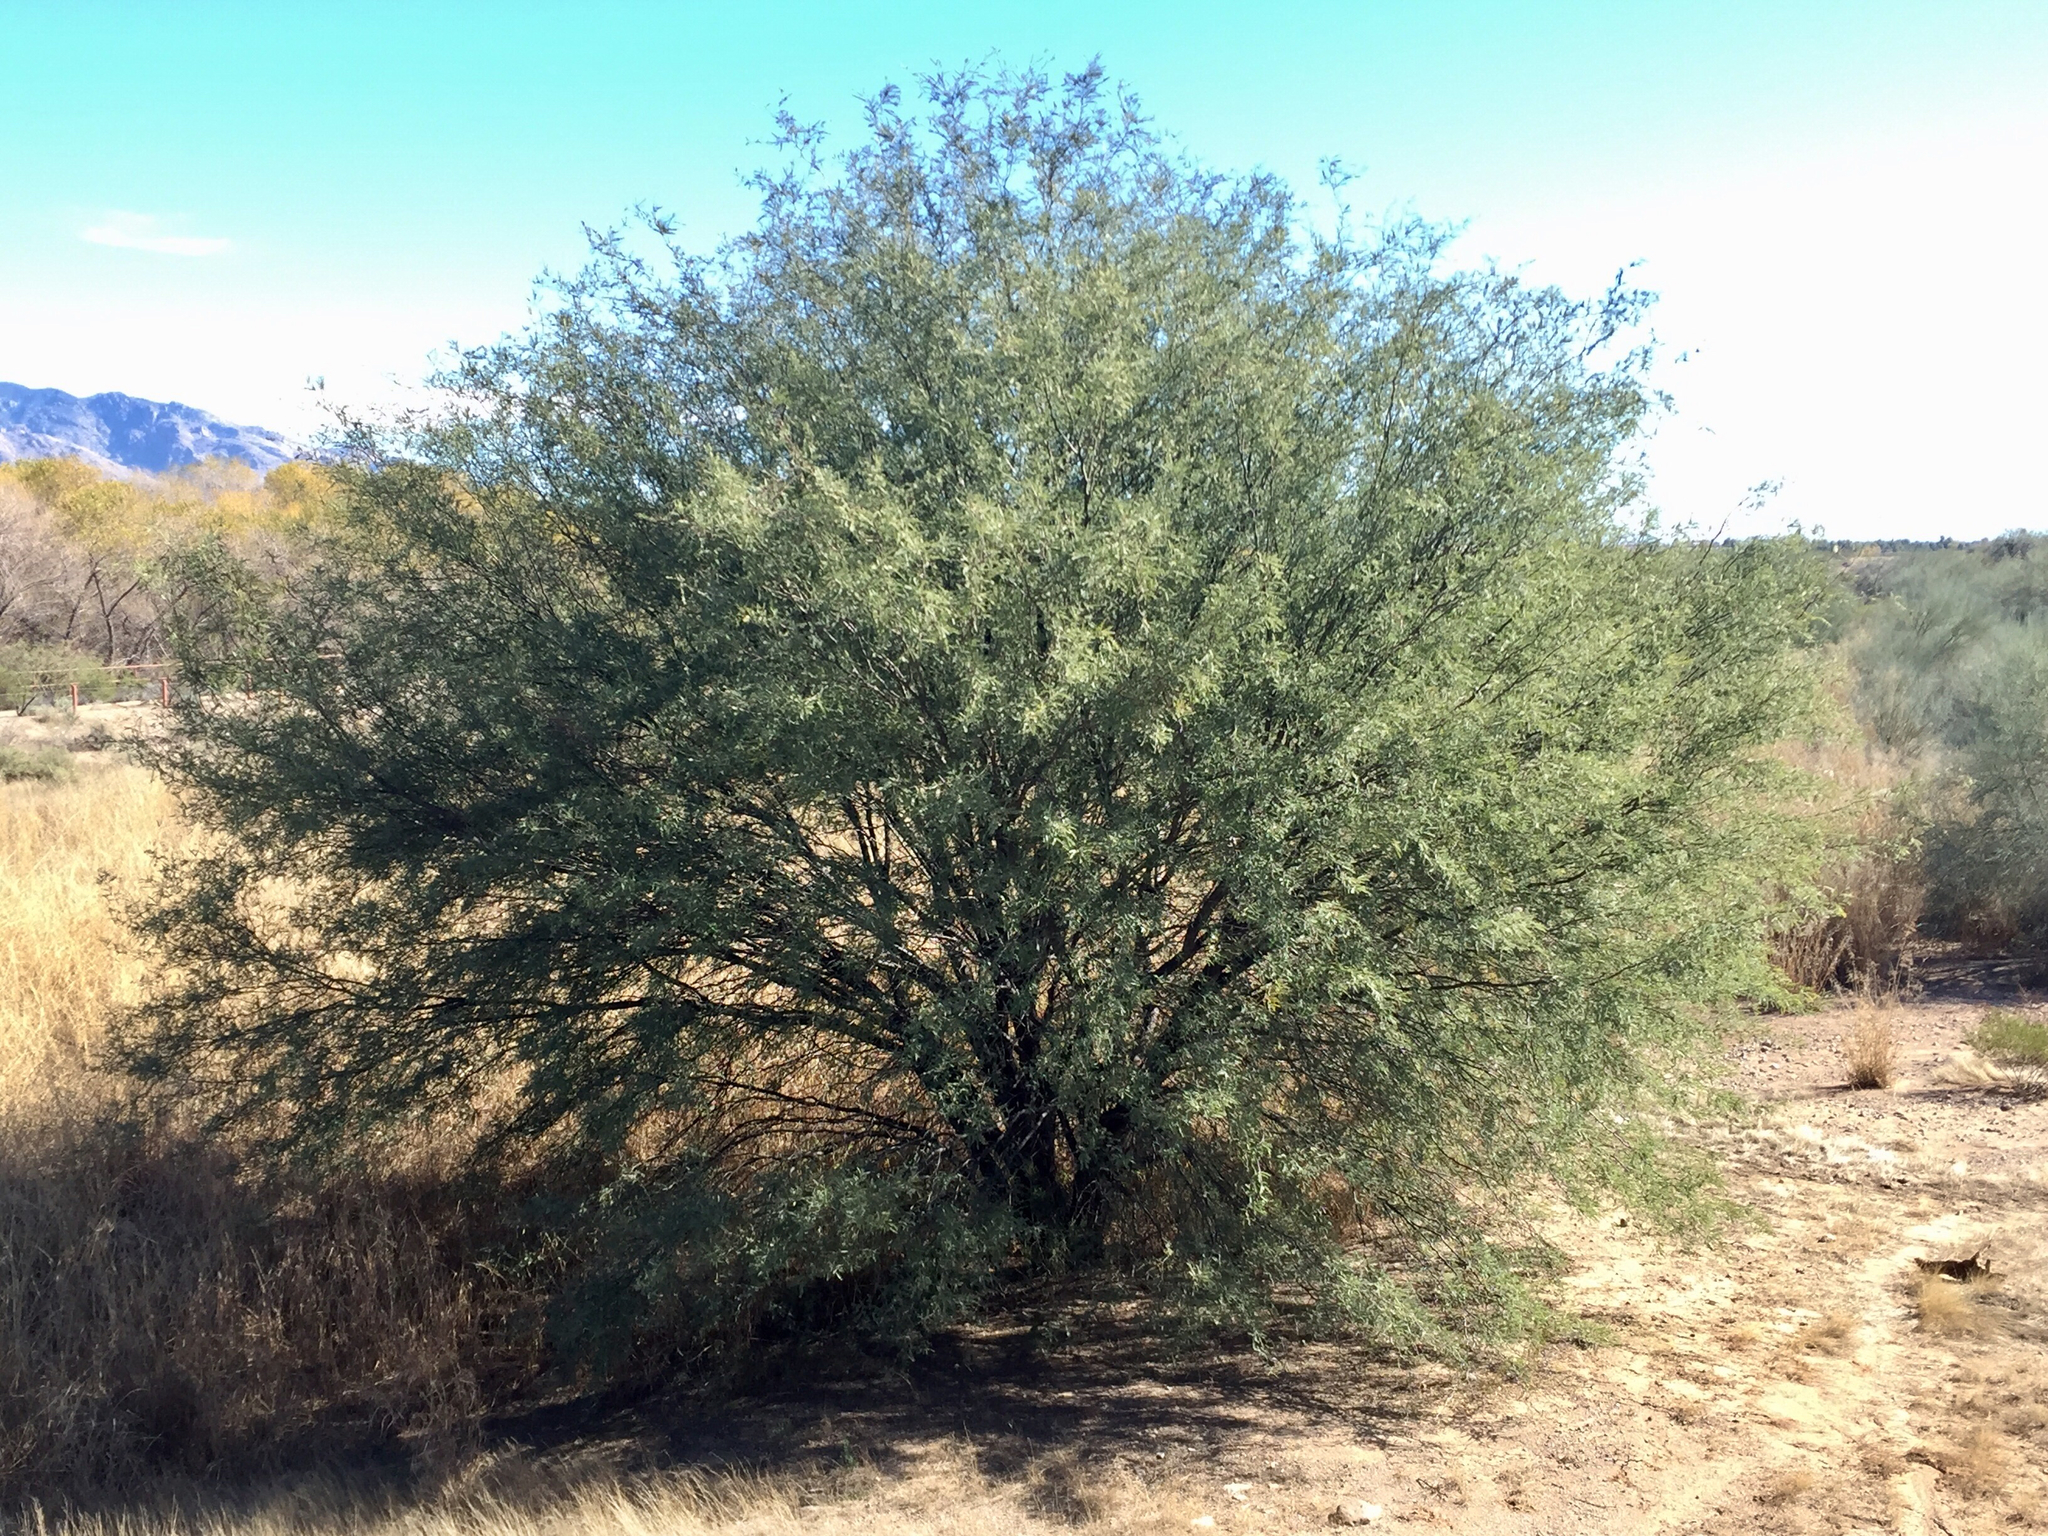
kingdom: Plantae
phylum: Tracheophyta
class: Magnoliopsida
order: Fabales
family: Fabaceae
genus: Prosopis
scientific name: Prosopis glandulosa
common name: Honey mesquite
